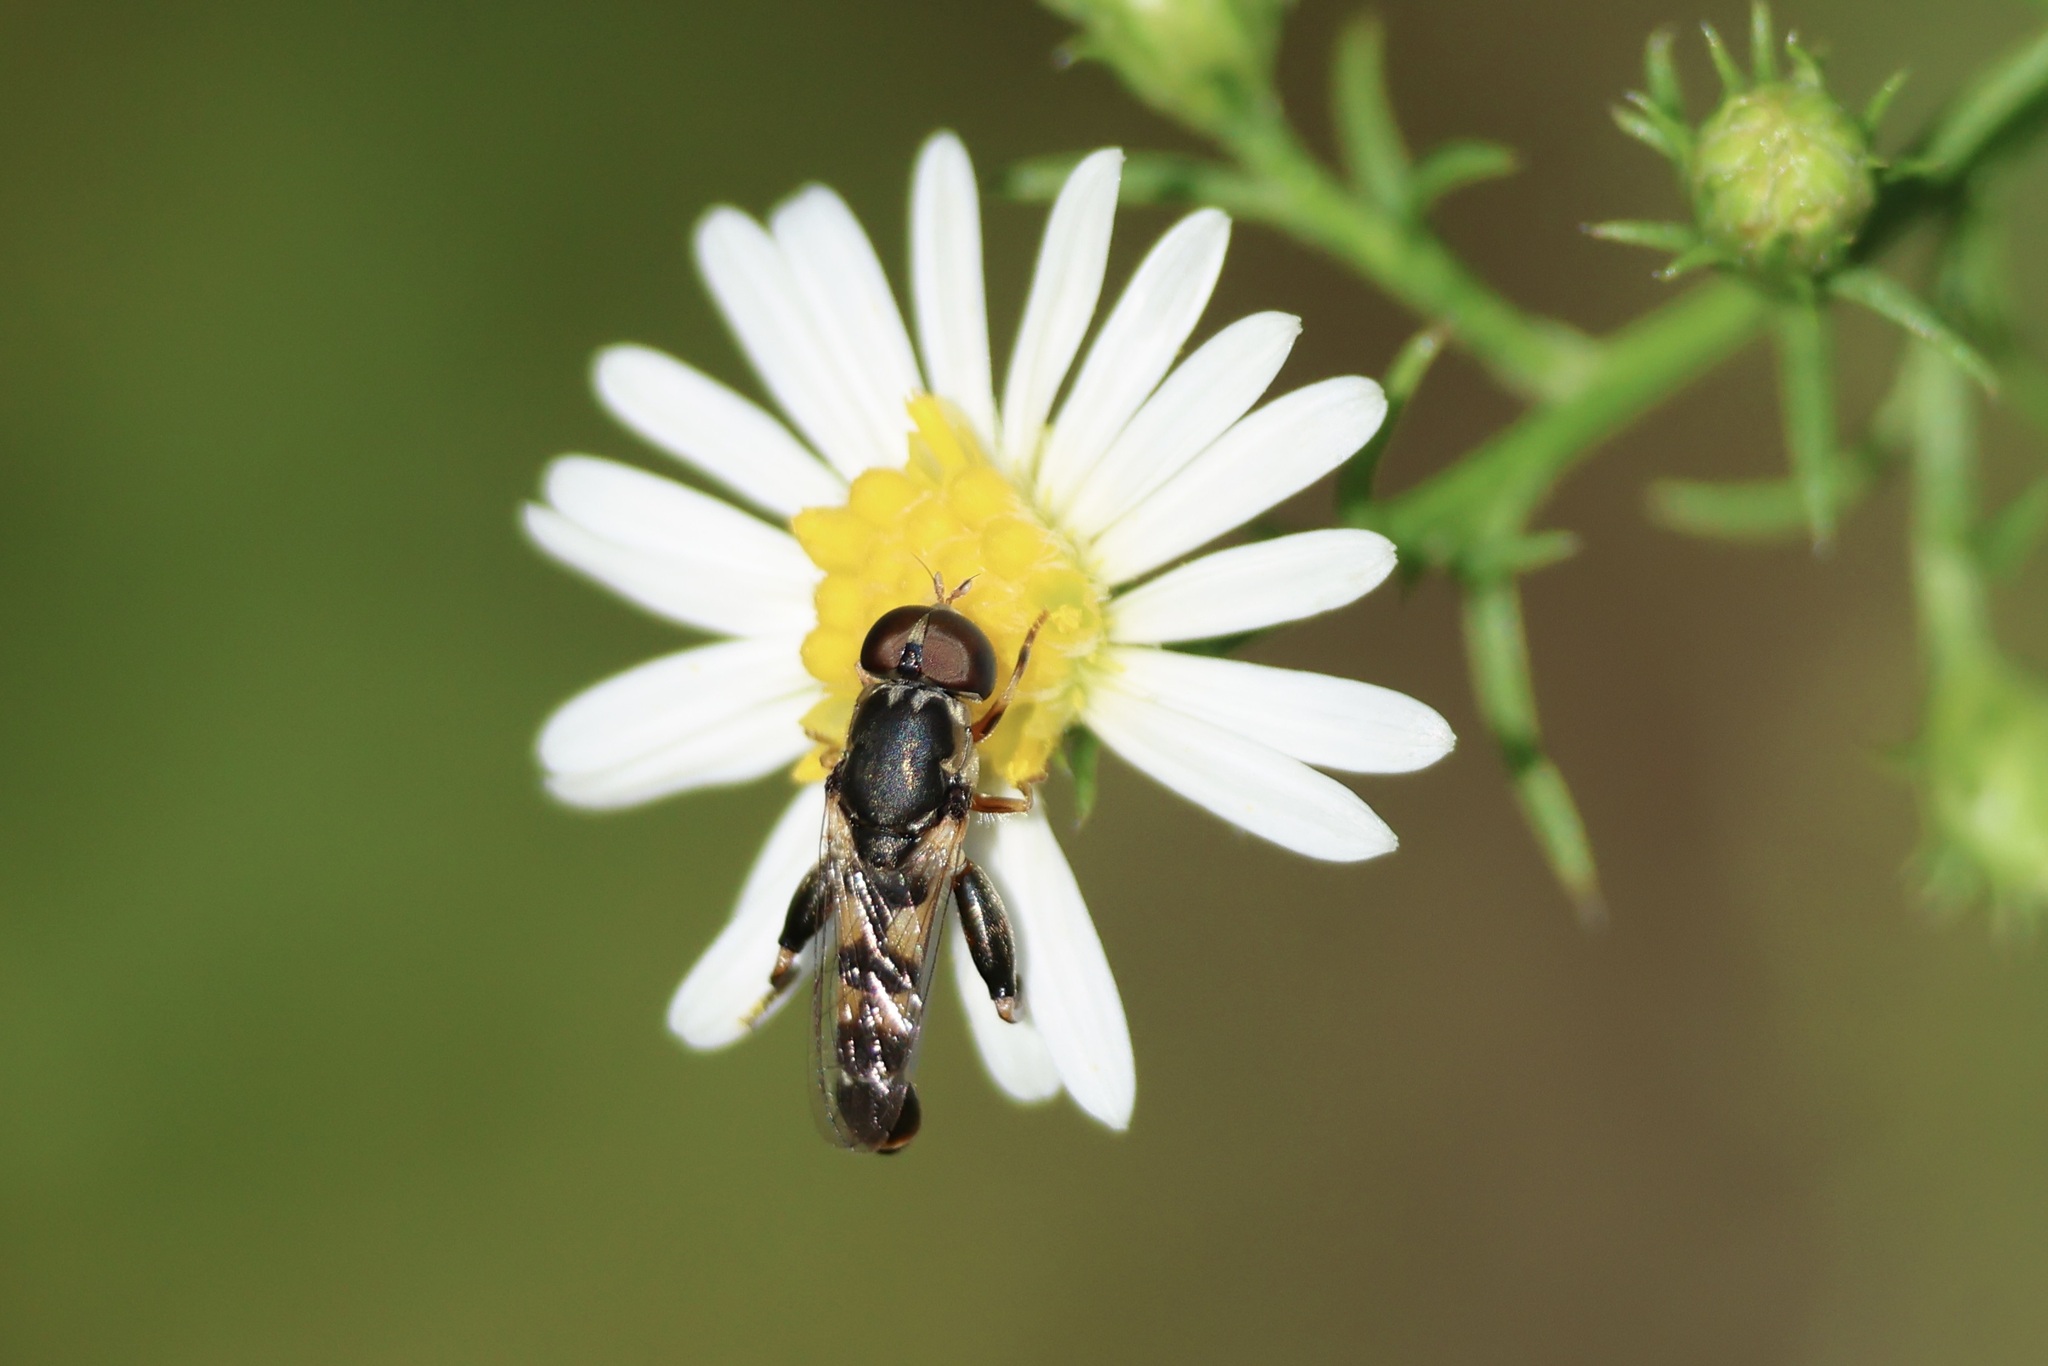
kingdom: Animalia
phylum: Arthropoda
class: Insecta
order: Diptera
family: Syrphidae
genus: Syritta
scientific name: Syritta pipiens
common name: Hover fly
